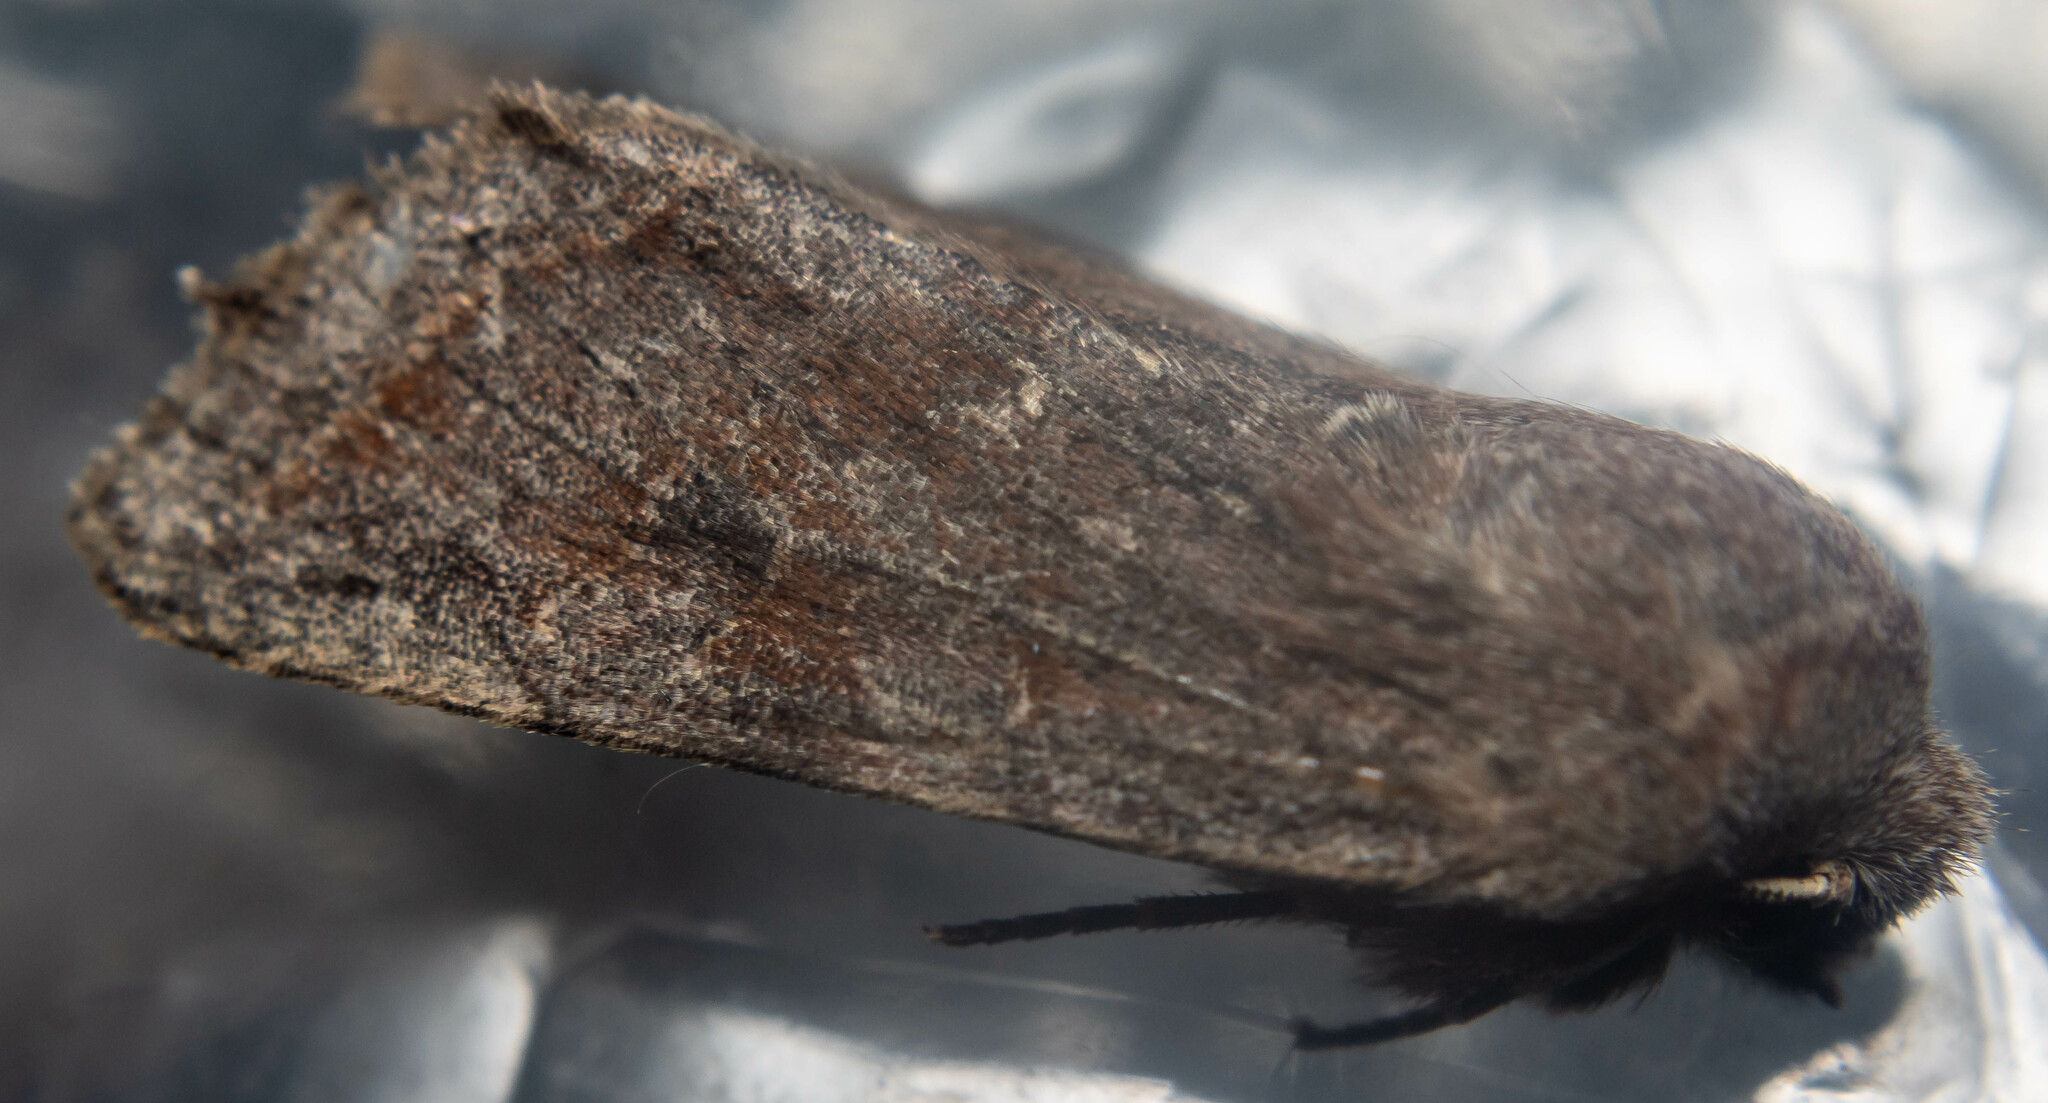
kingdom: Animalia
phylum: Arthropoda
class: Insecta
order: Lepidoptera
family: Noctuidae
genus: Orthosia
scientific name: Orthosia incerta
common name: Clouded drab
